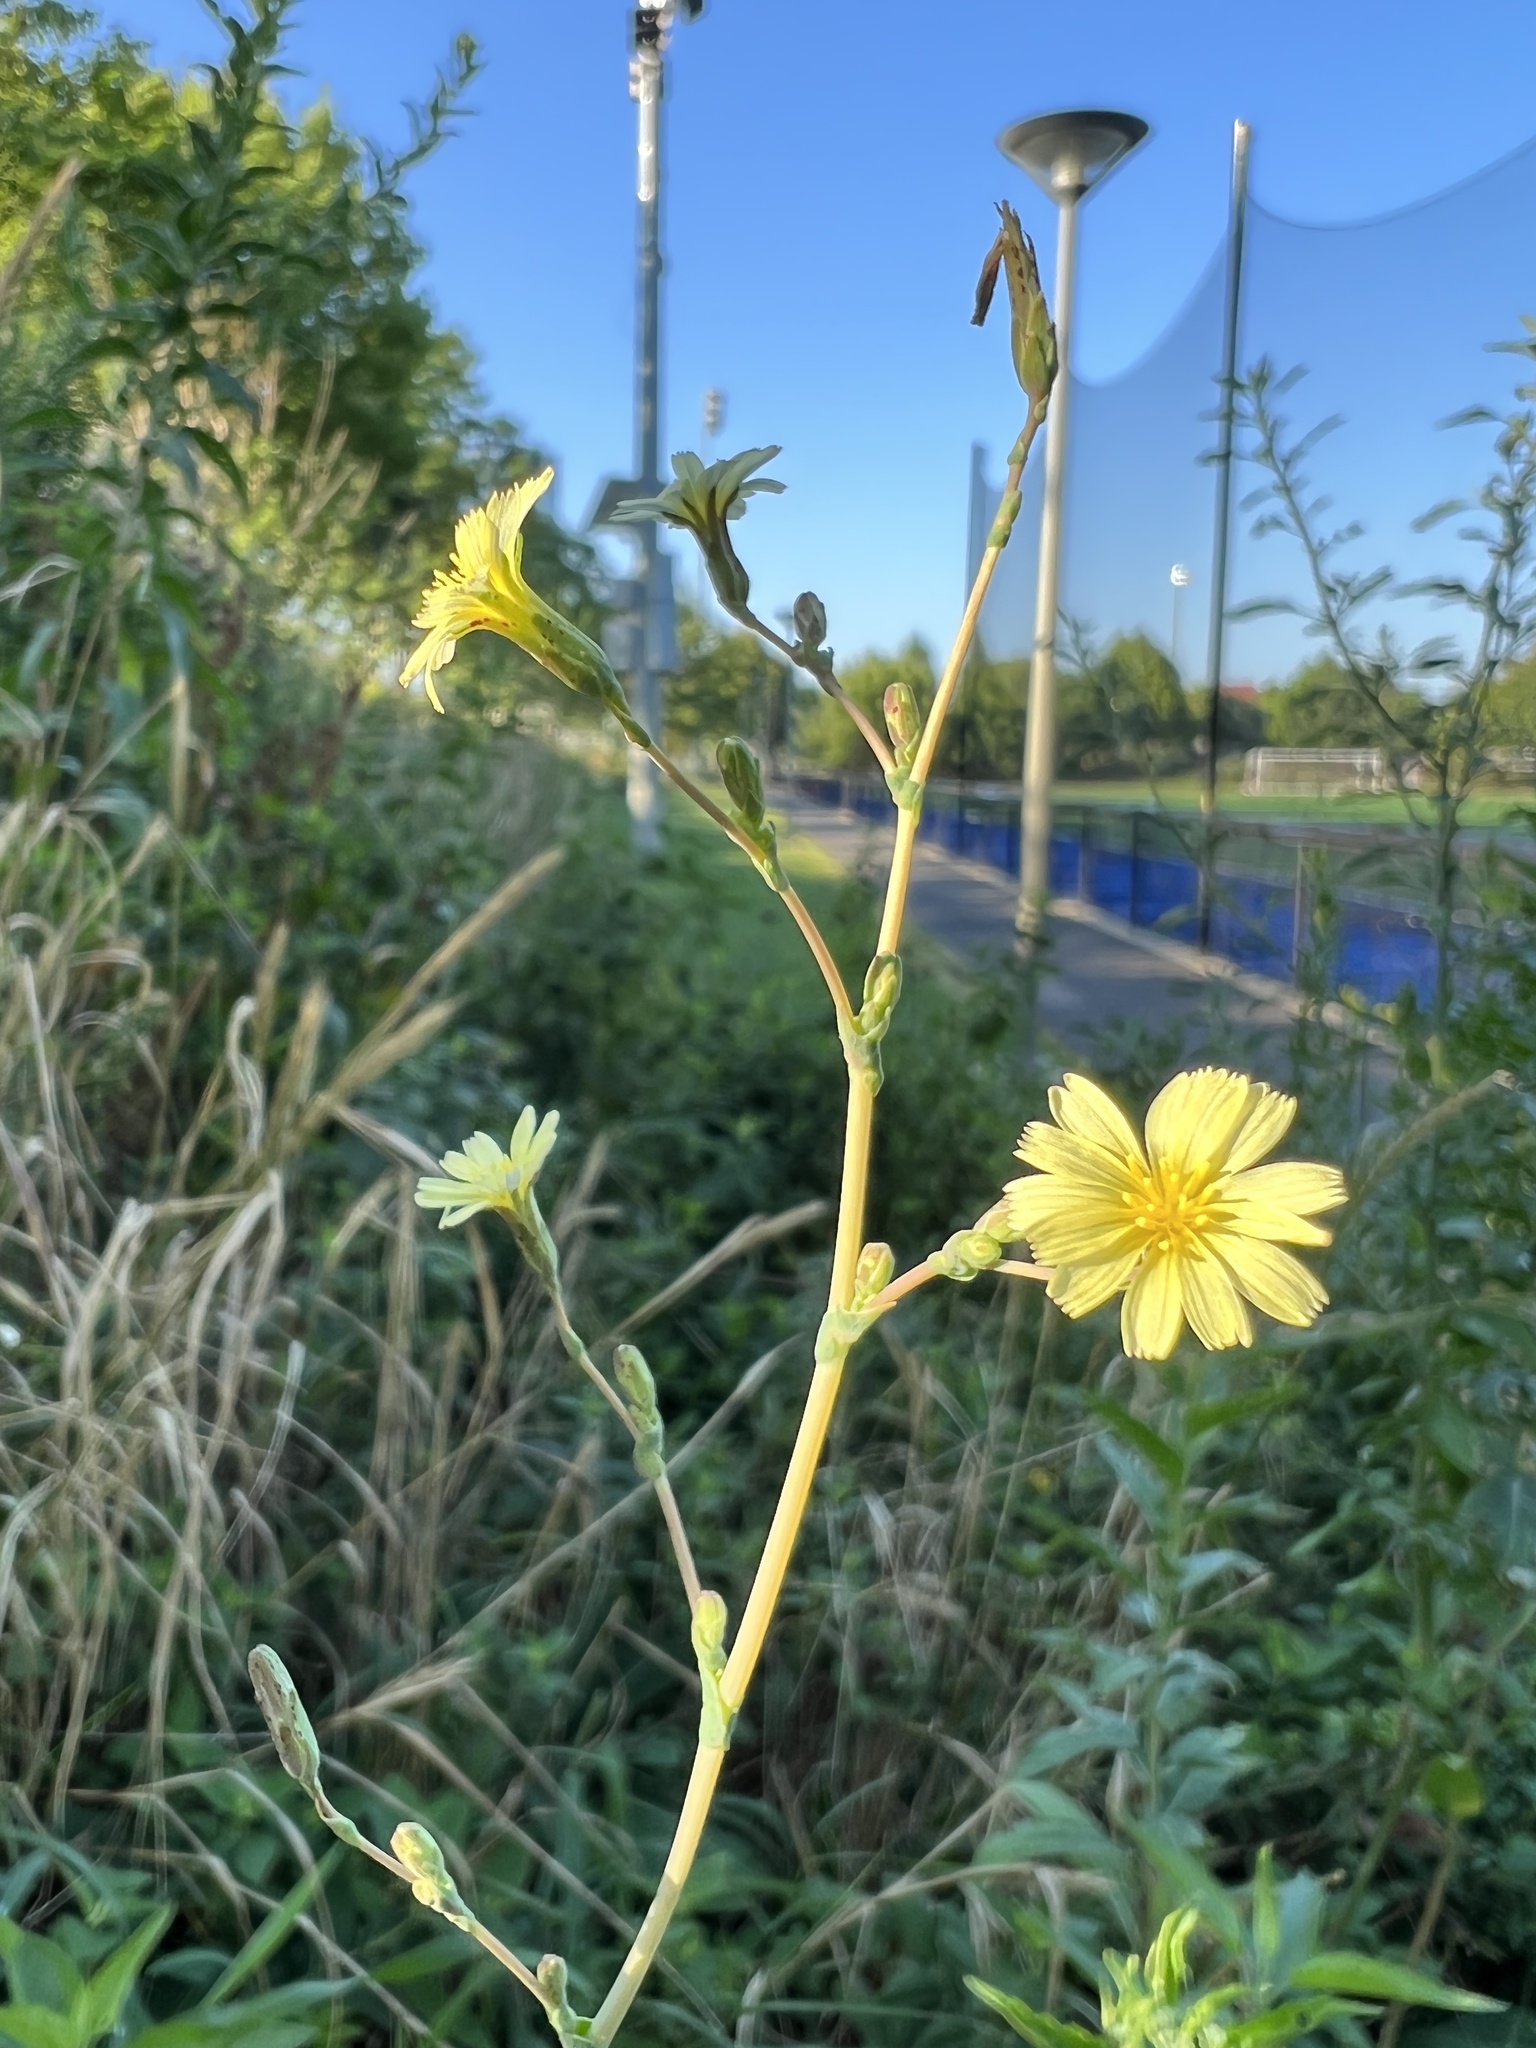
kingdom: Plantae
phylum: Tracheophyta
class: Magnoliopsida
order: Asterales
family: Asteraceae
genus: Lactuca
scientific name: Lactuca serriola
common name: Prickly lettuce
